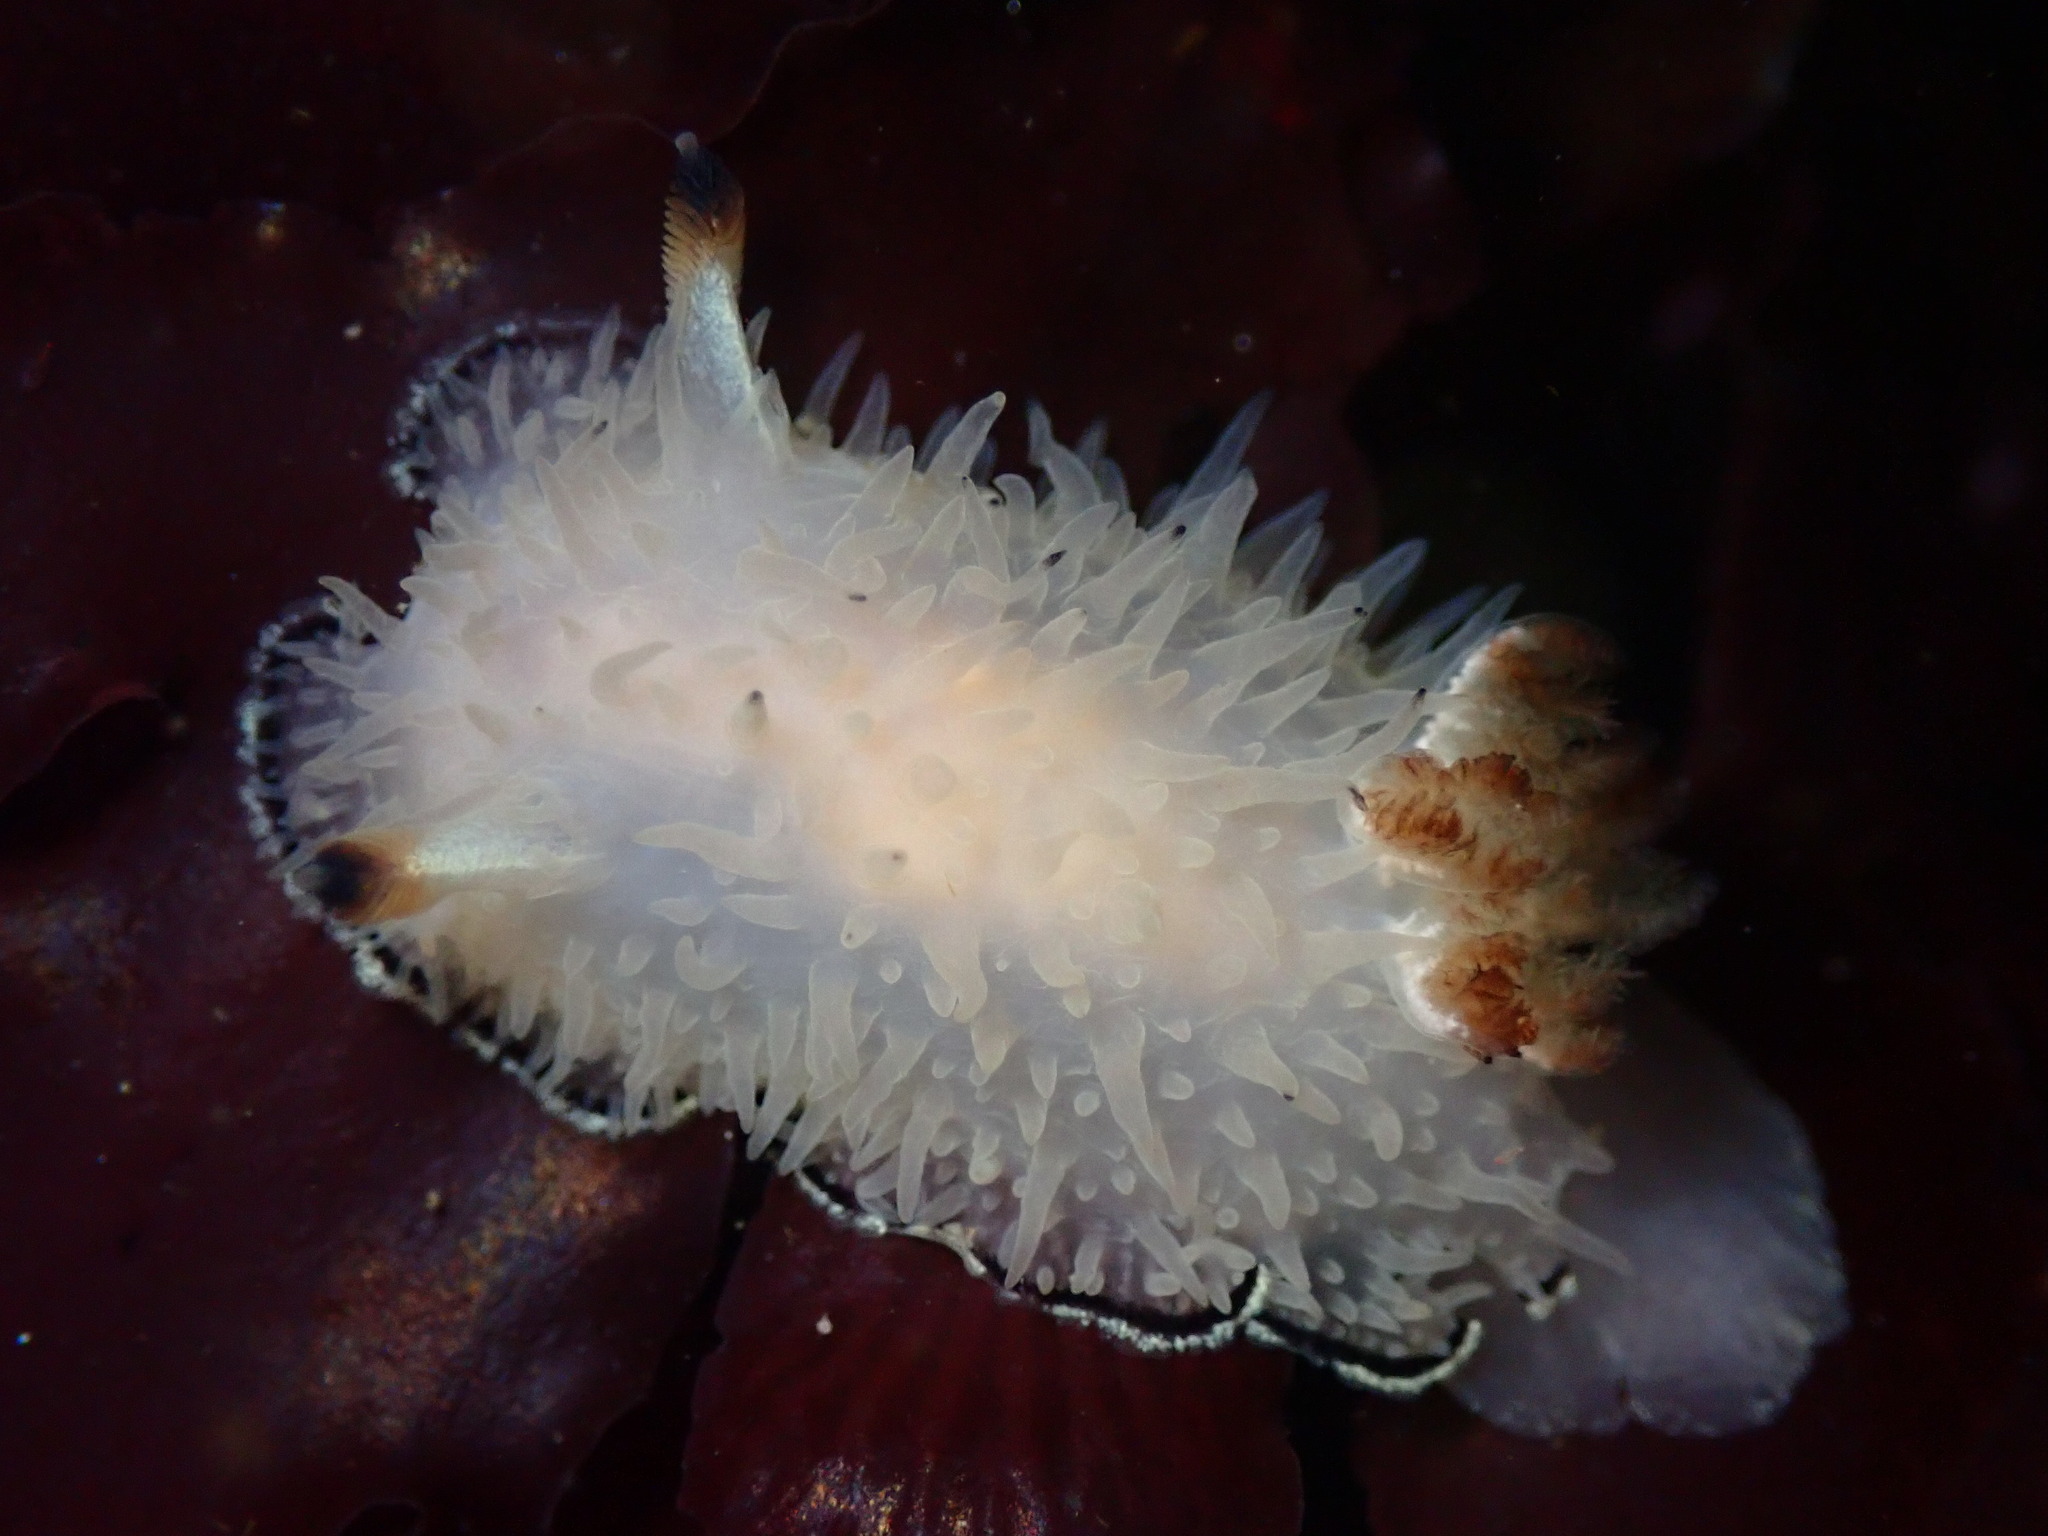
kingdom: Animalia
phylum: Mollusca
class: Gastropoda
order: Nudibranchia
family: Onchidorididae
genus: Acanthodoris
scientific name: Acanthodoris rhodoceras
